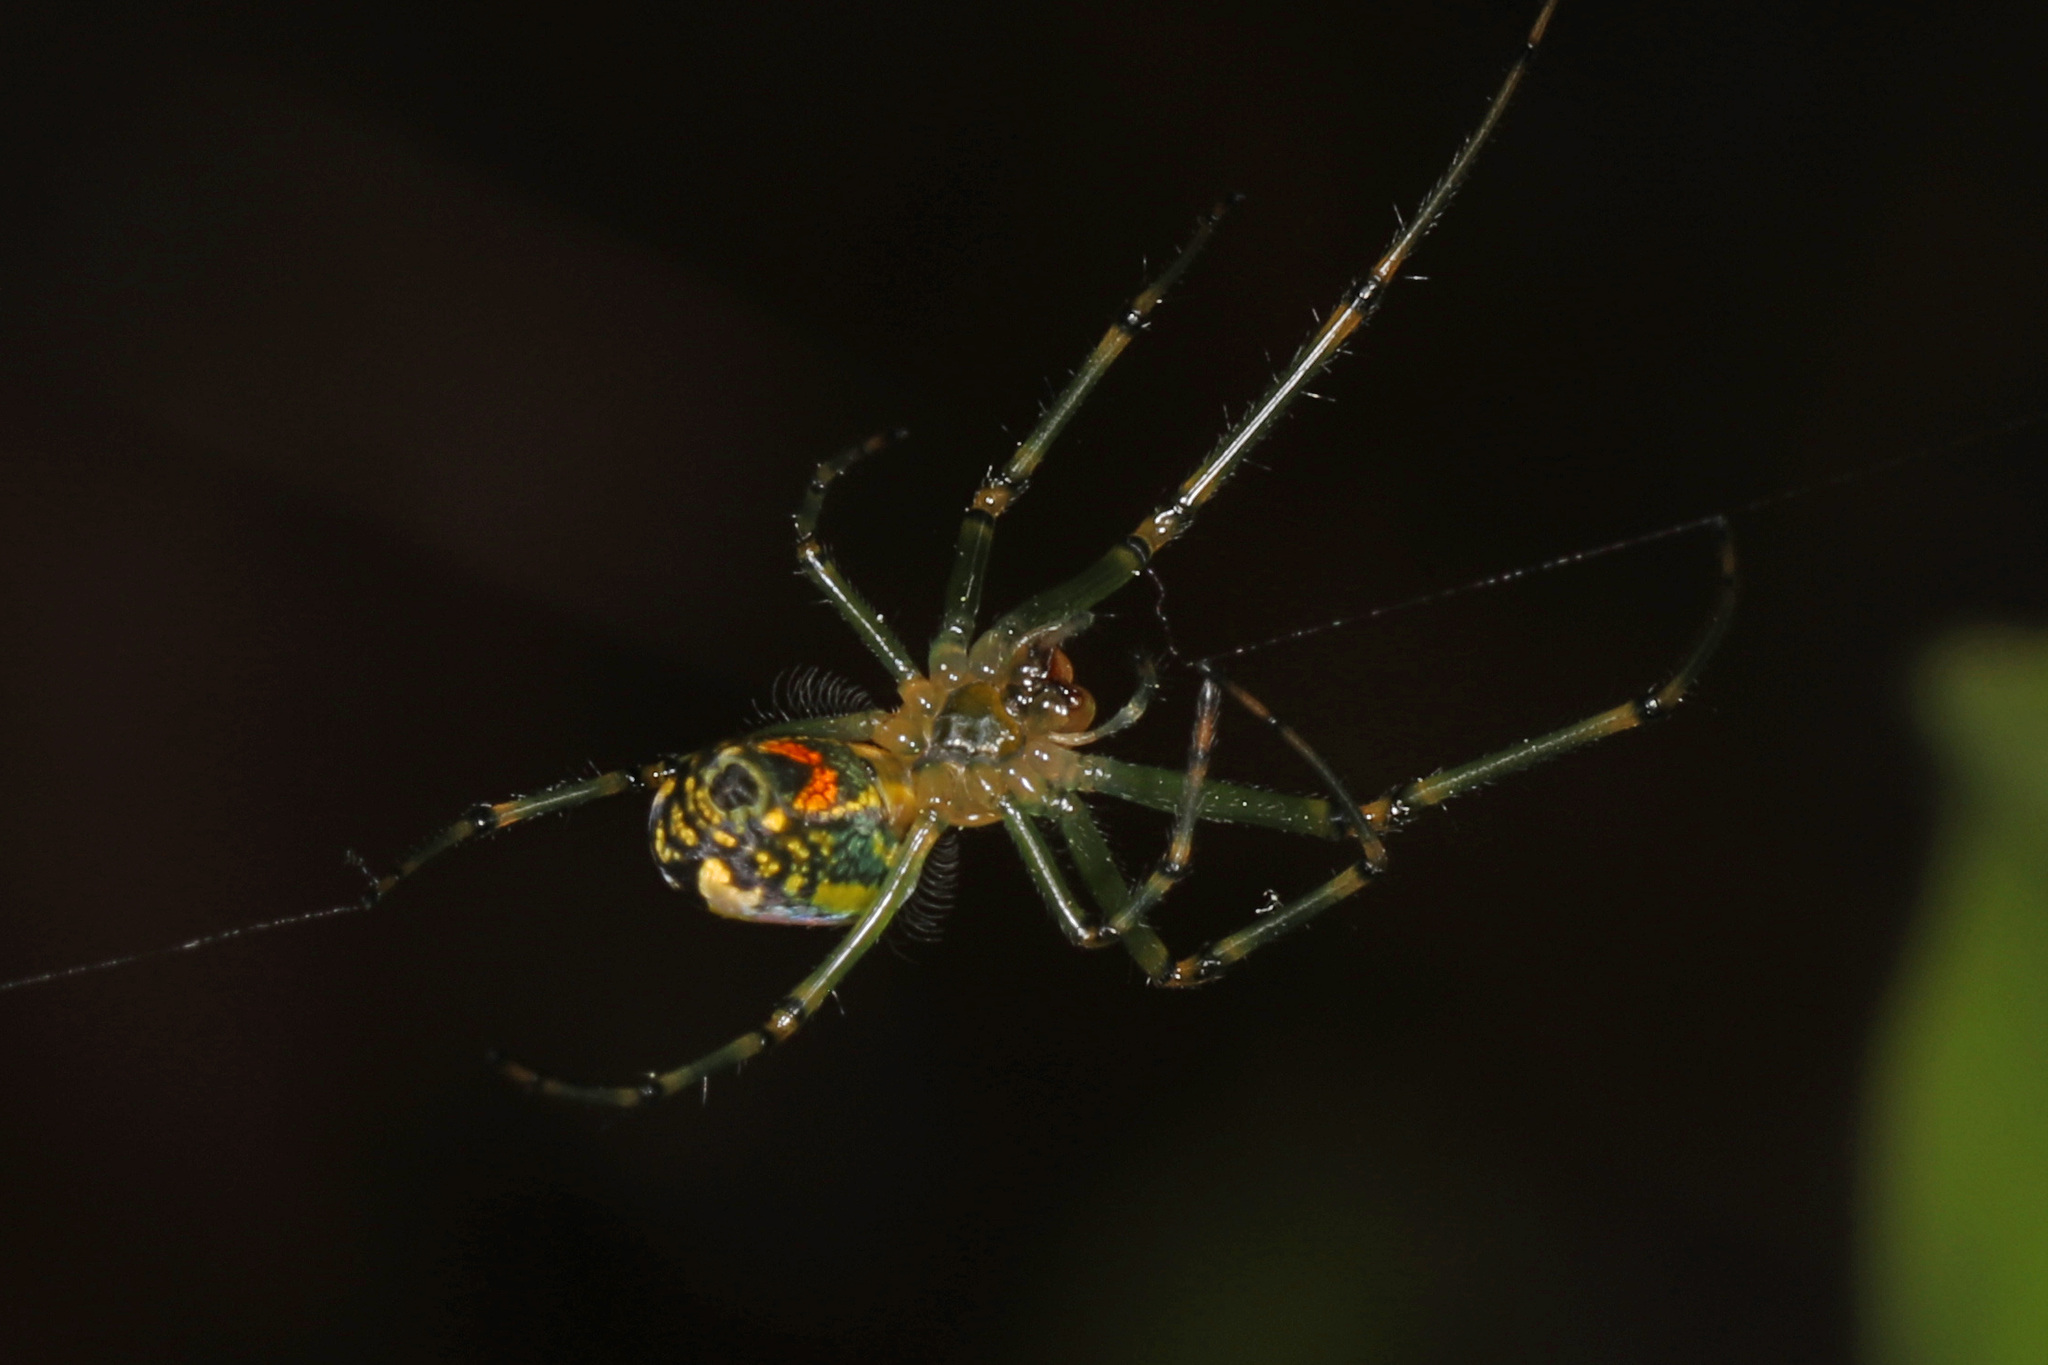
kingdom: Animalia
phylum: Arthropoda
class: Arachnida
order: Araneae
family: Tetragnathidae
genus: Leucauge
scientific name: Leucauge venusta
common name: Longjawed orb weavers
